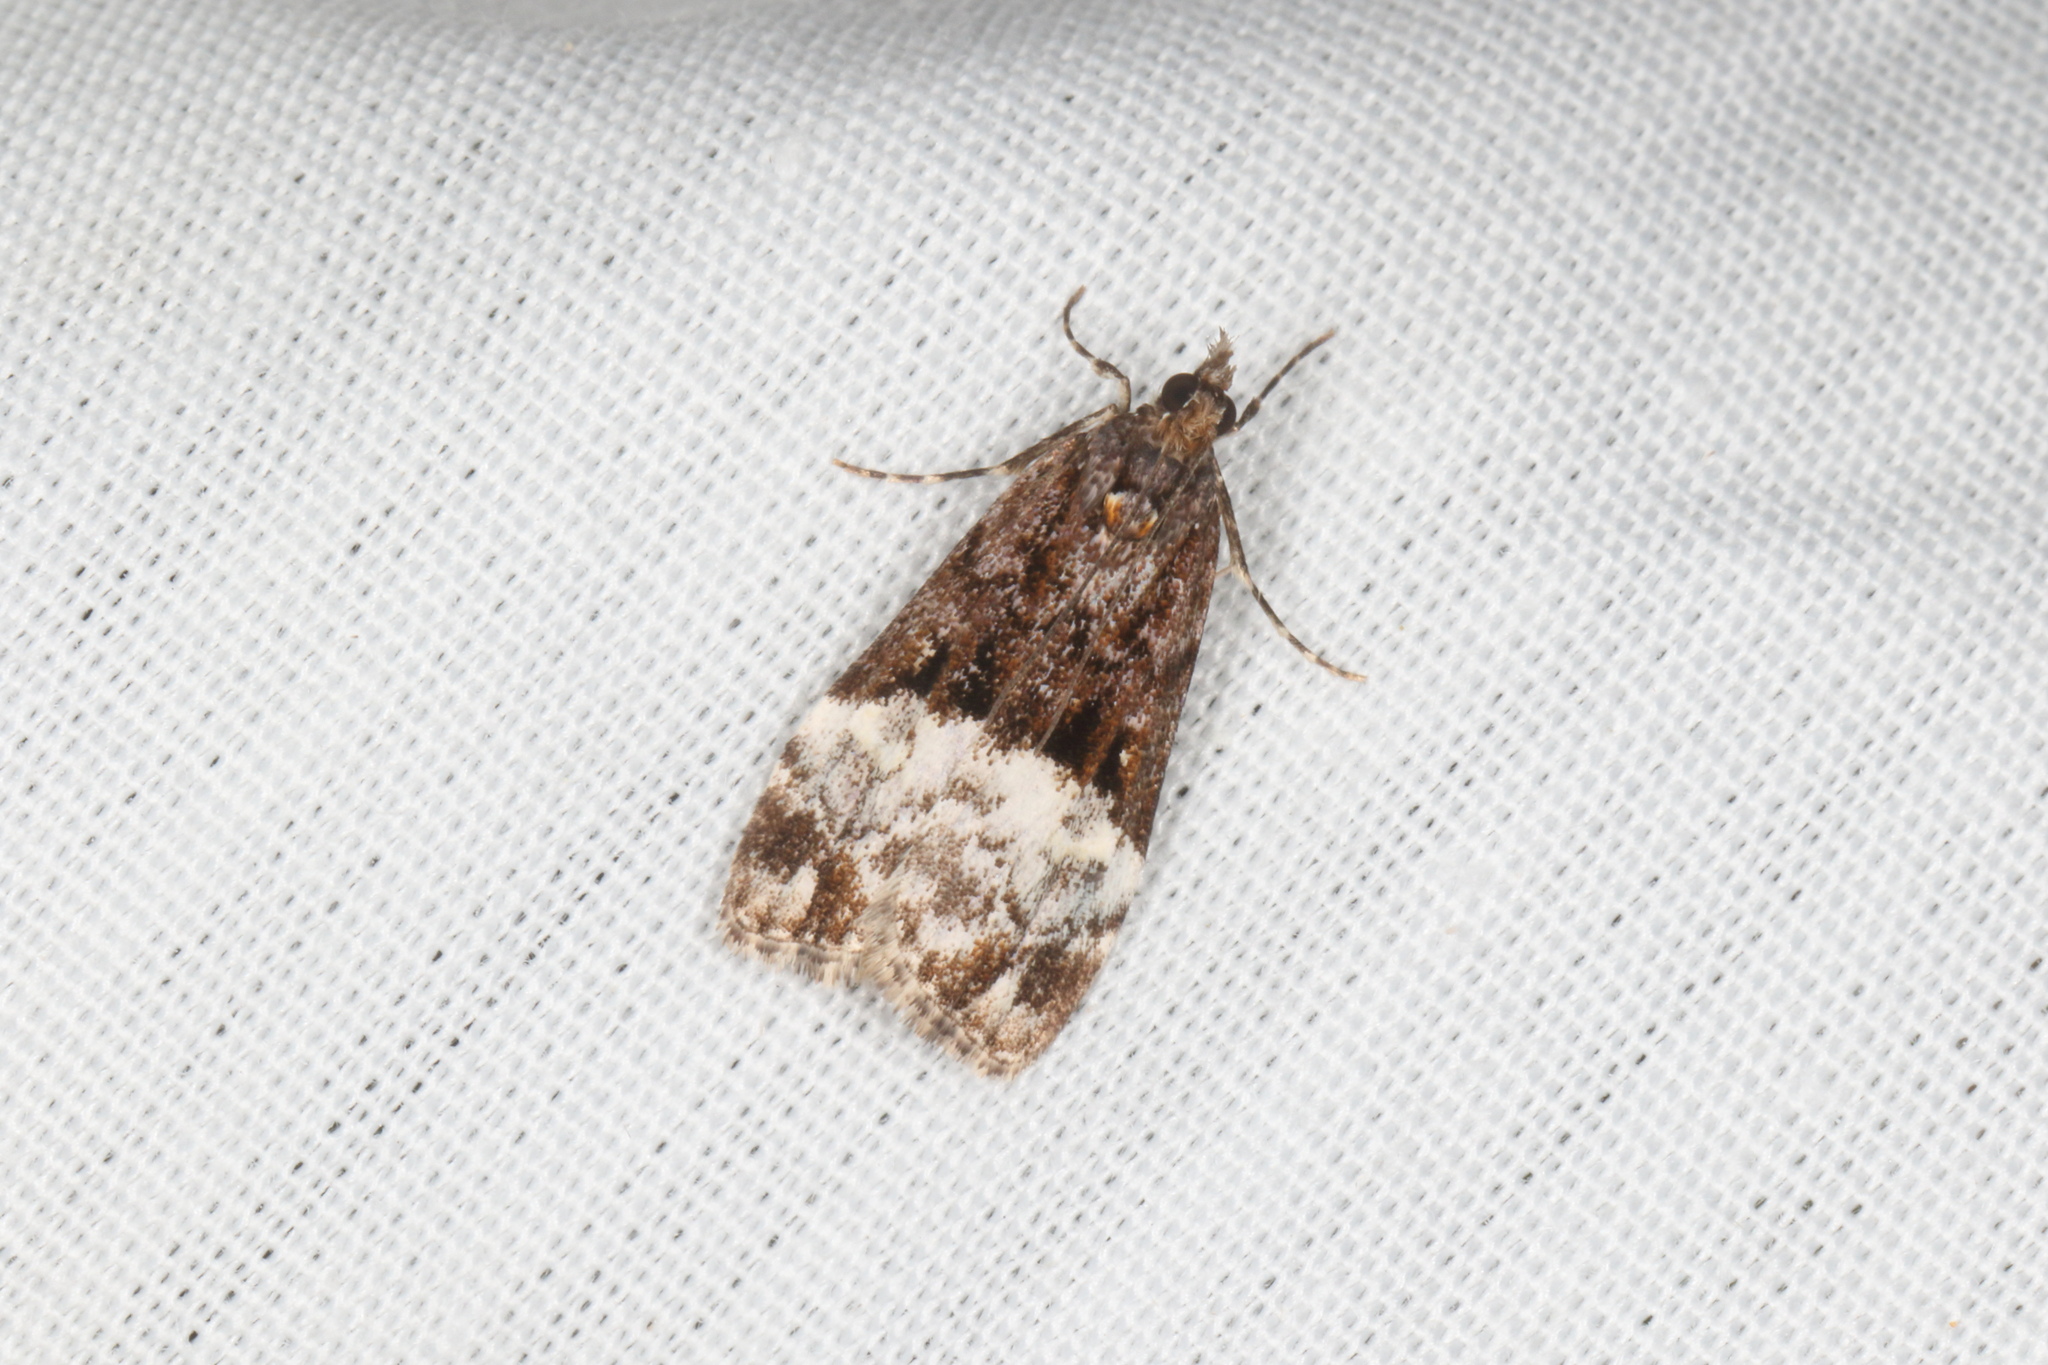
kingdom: Animalia
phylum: Arthropoda
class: Insecta
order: Lepidoptera
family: Crambidae
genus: Scoparia
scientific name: Scoparia minusculalis
